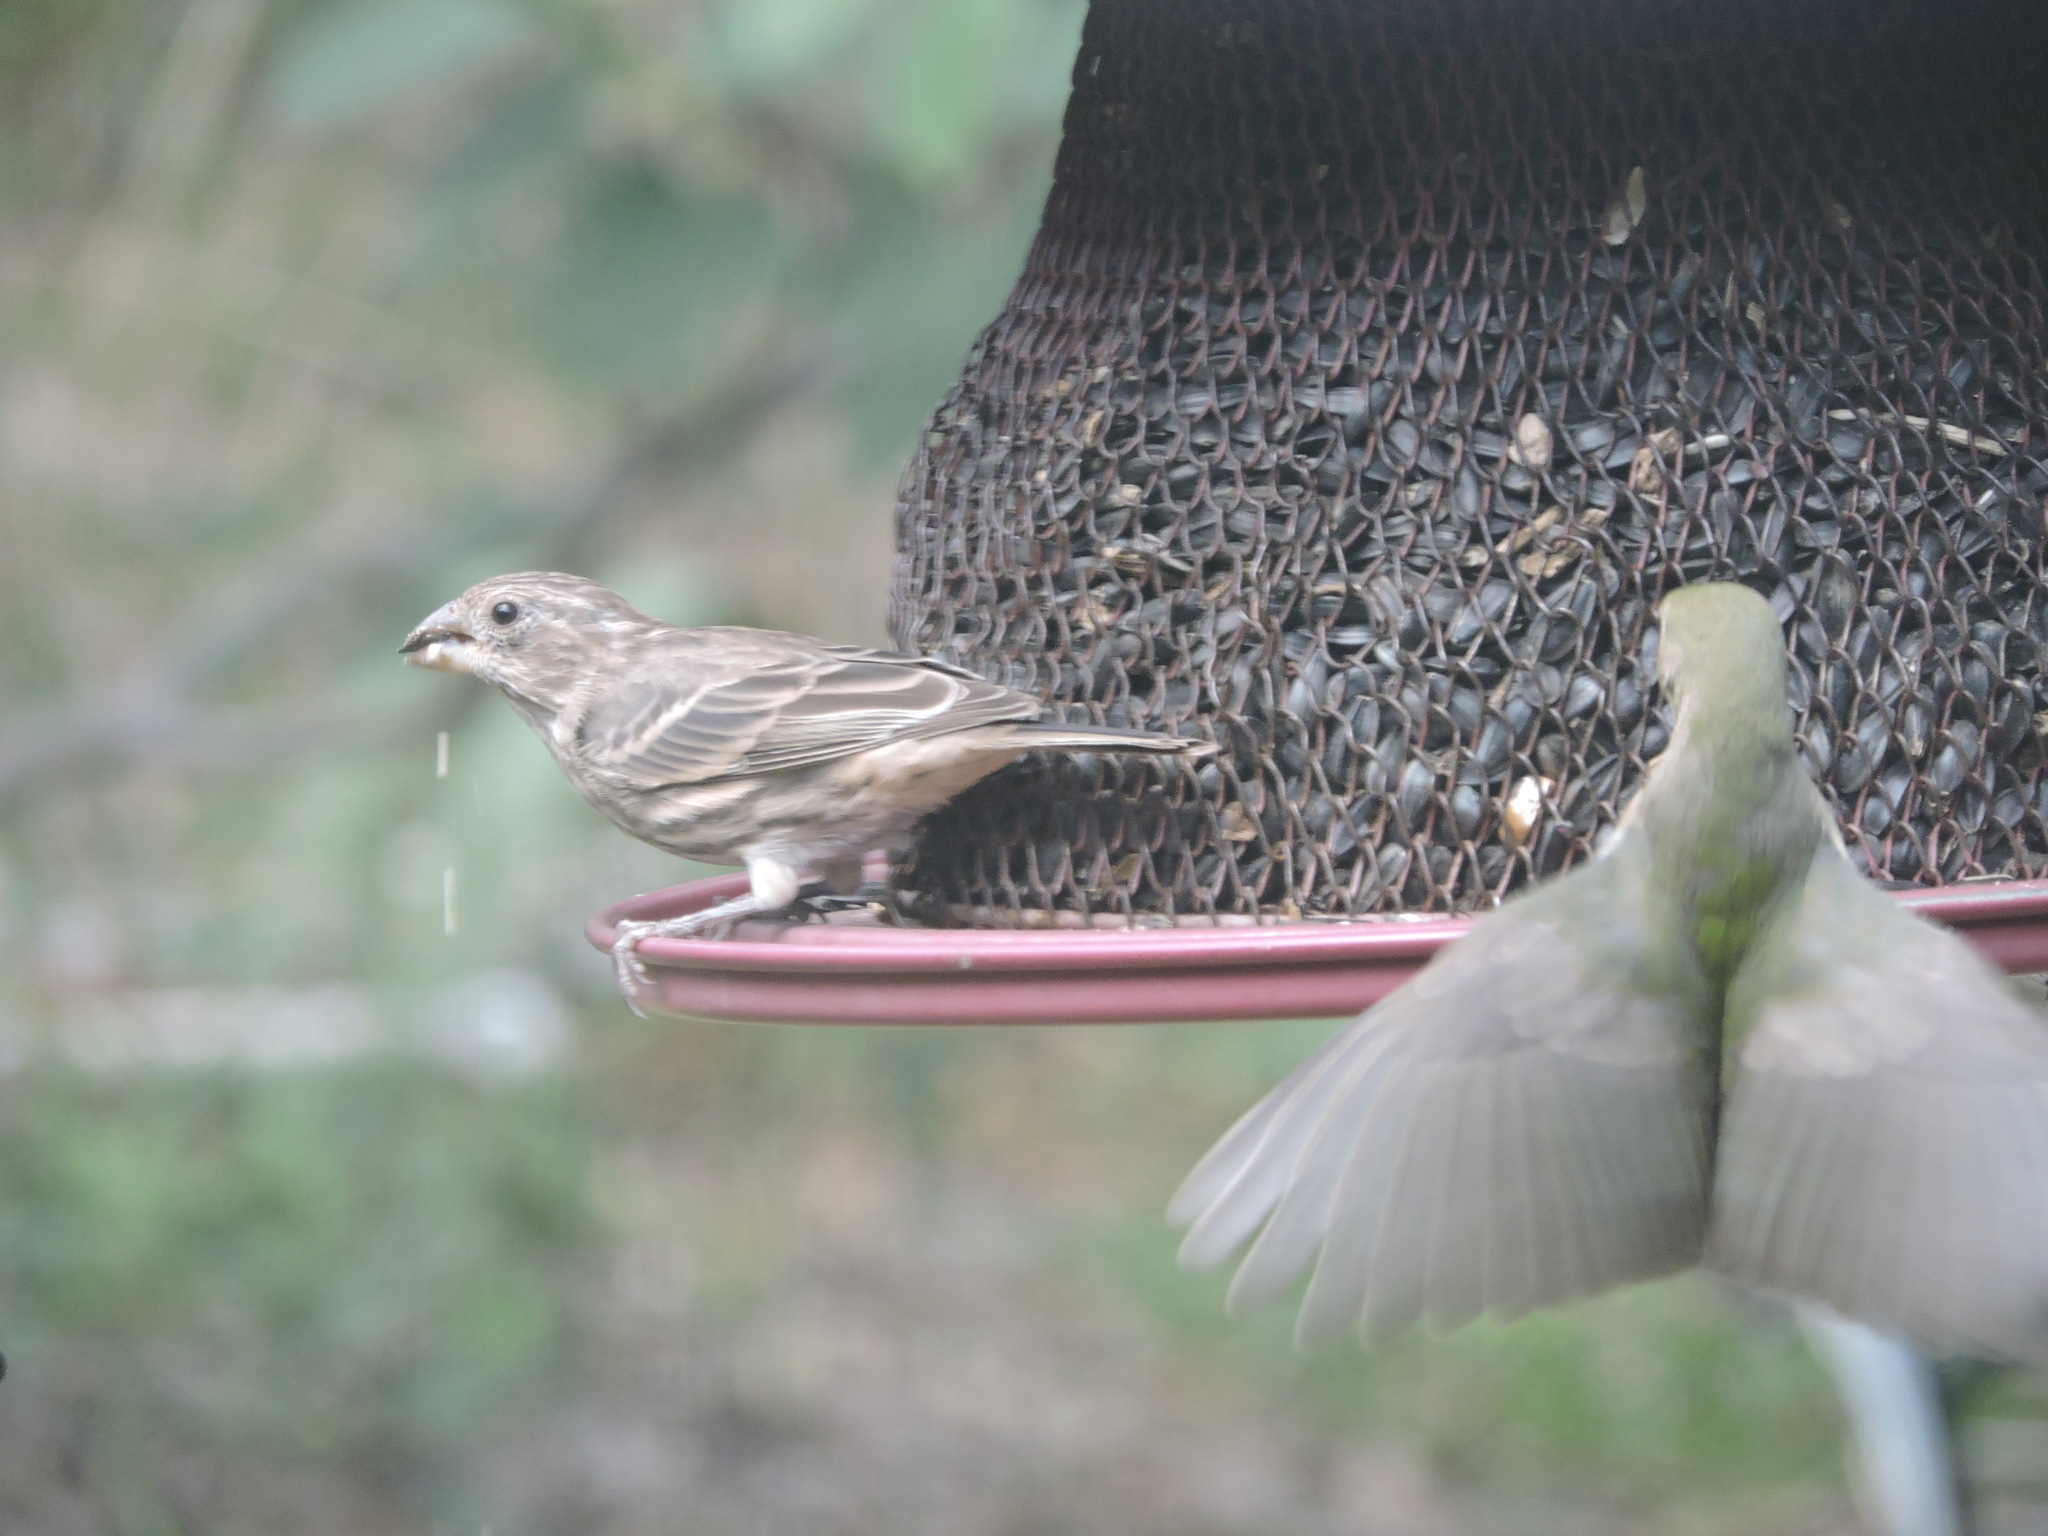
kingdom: Animalia
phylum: Chordata
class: Aves
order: Passeriformes
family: Fringillidae
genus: Haemorhous
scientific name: Haemorhous mexicanus
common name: House finch
